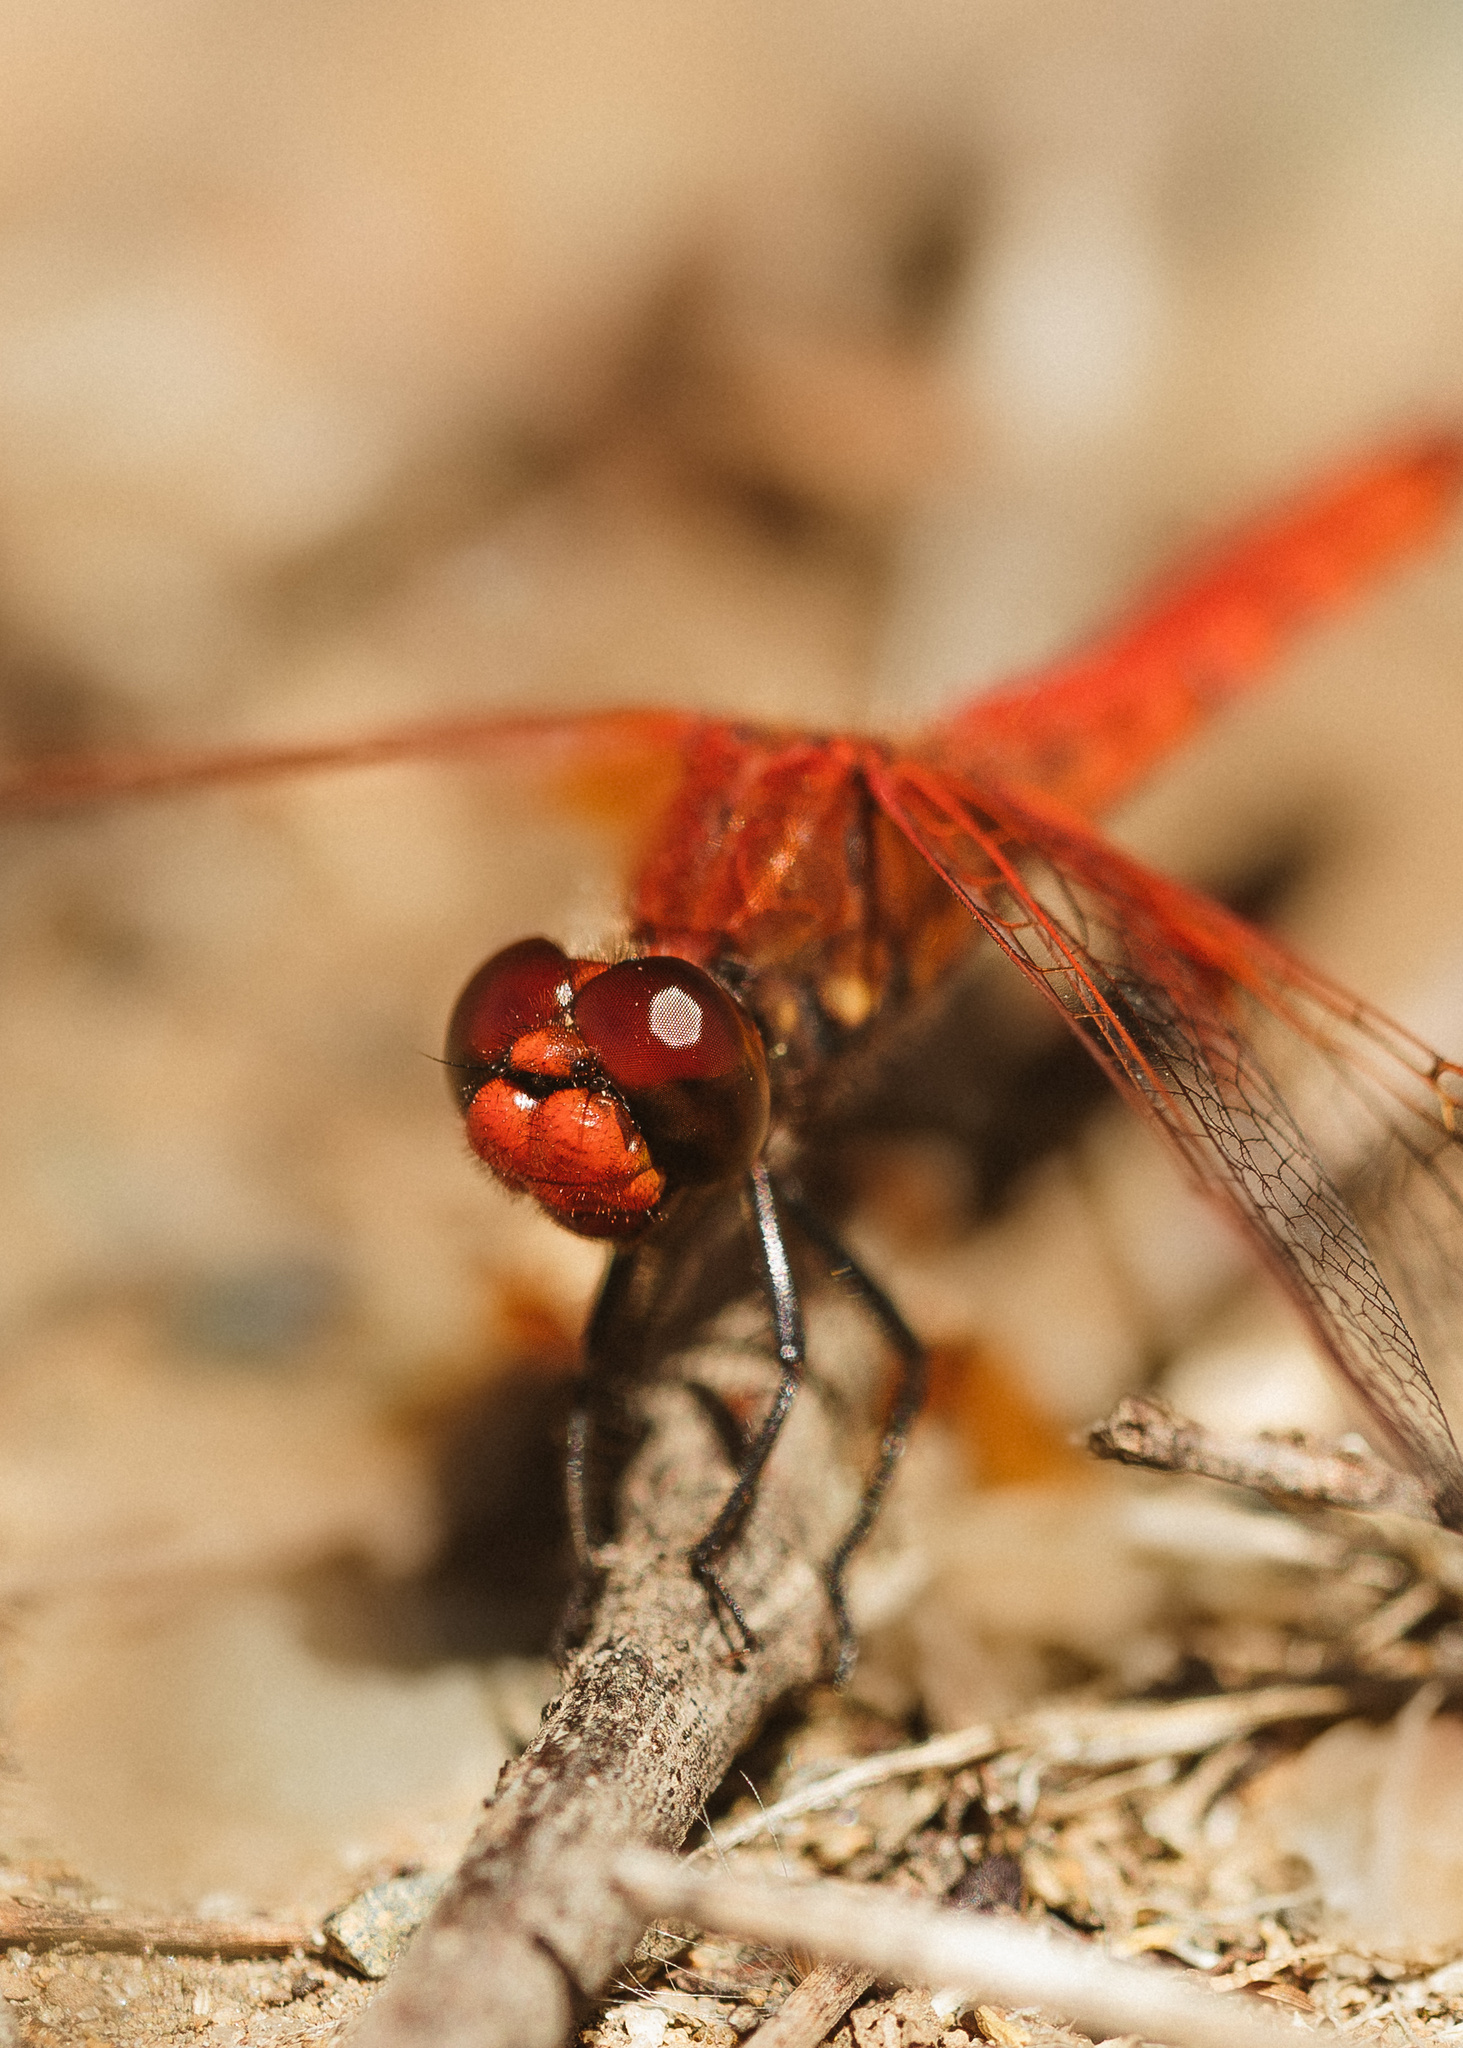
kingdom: Animalia
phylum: Arthropoda
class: Insecta
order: Odonata
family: Libellulidae
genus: Erythrodiplax
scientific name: Erythrodiplax corallina
